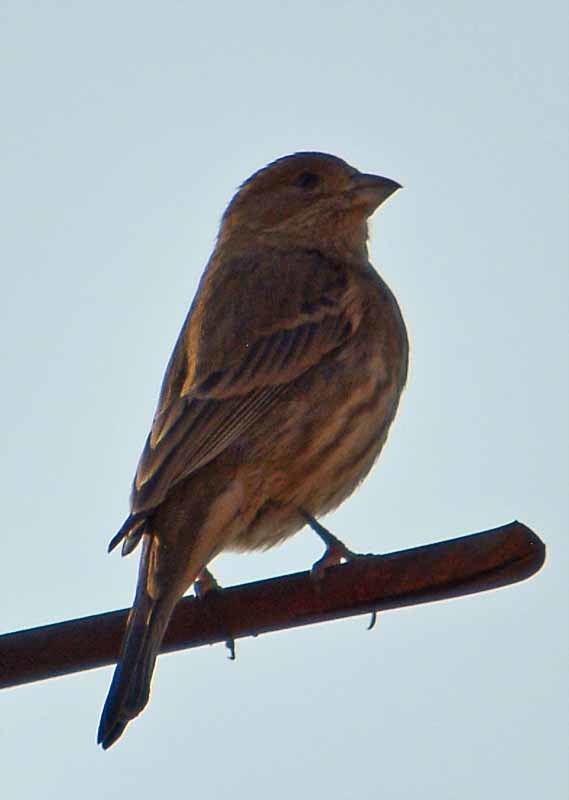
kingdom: Animalia
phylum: Chordata
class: Aves
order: Passeriformes
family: Fringillidae
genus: Haemorhous
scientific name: Haemorhous mexicanus
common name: House finch
